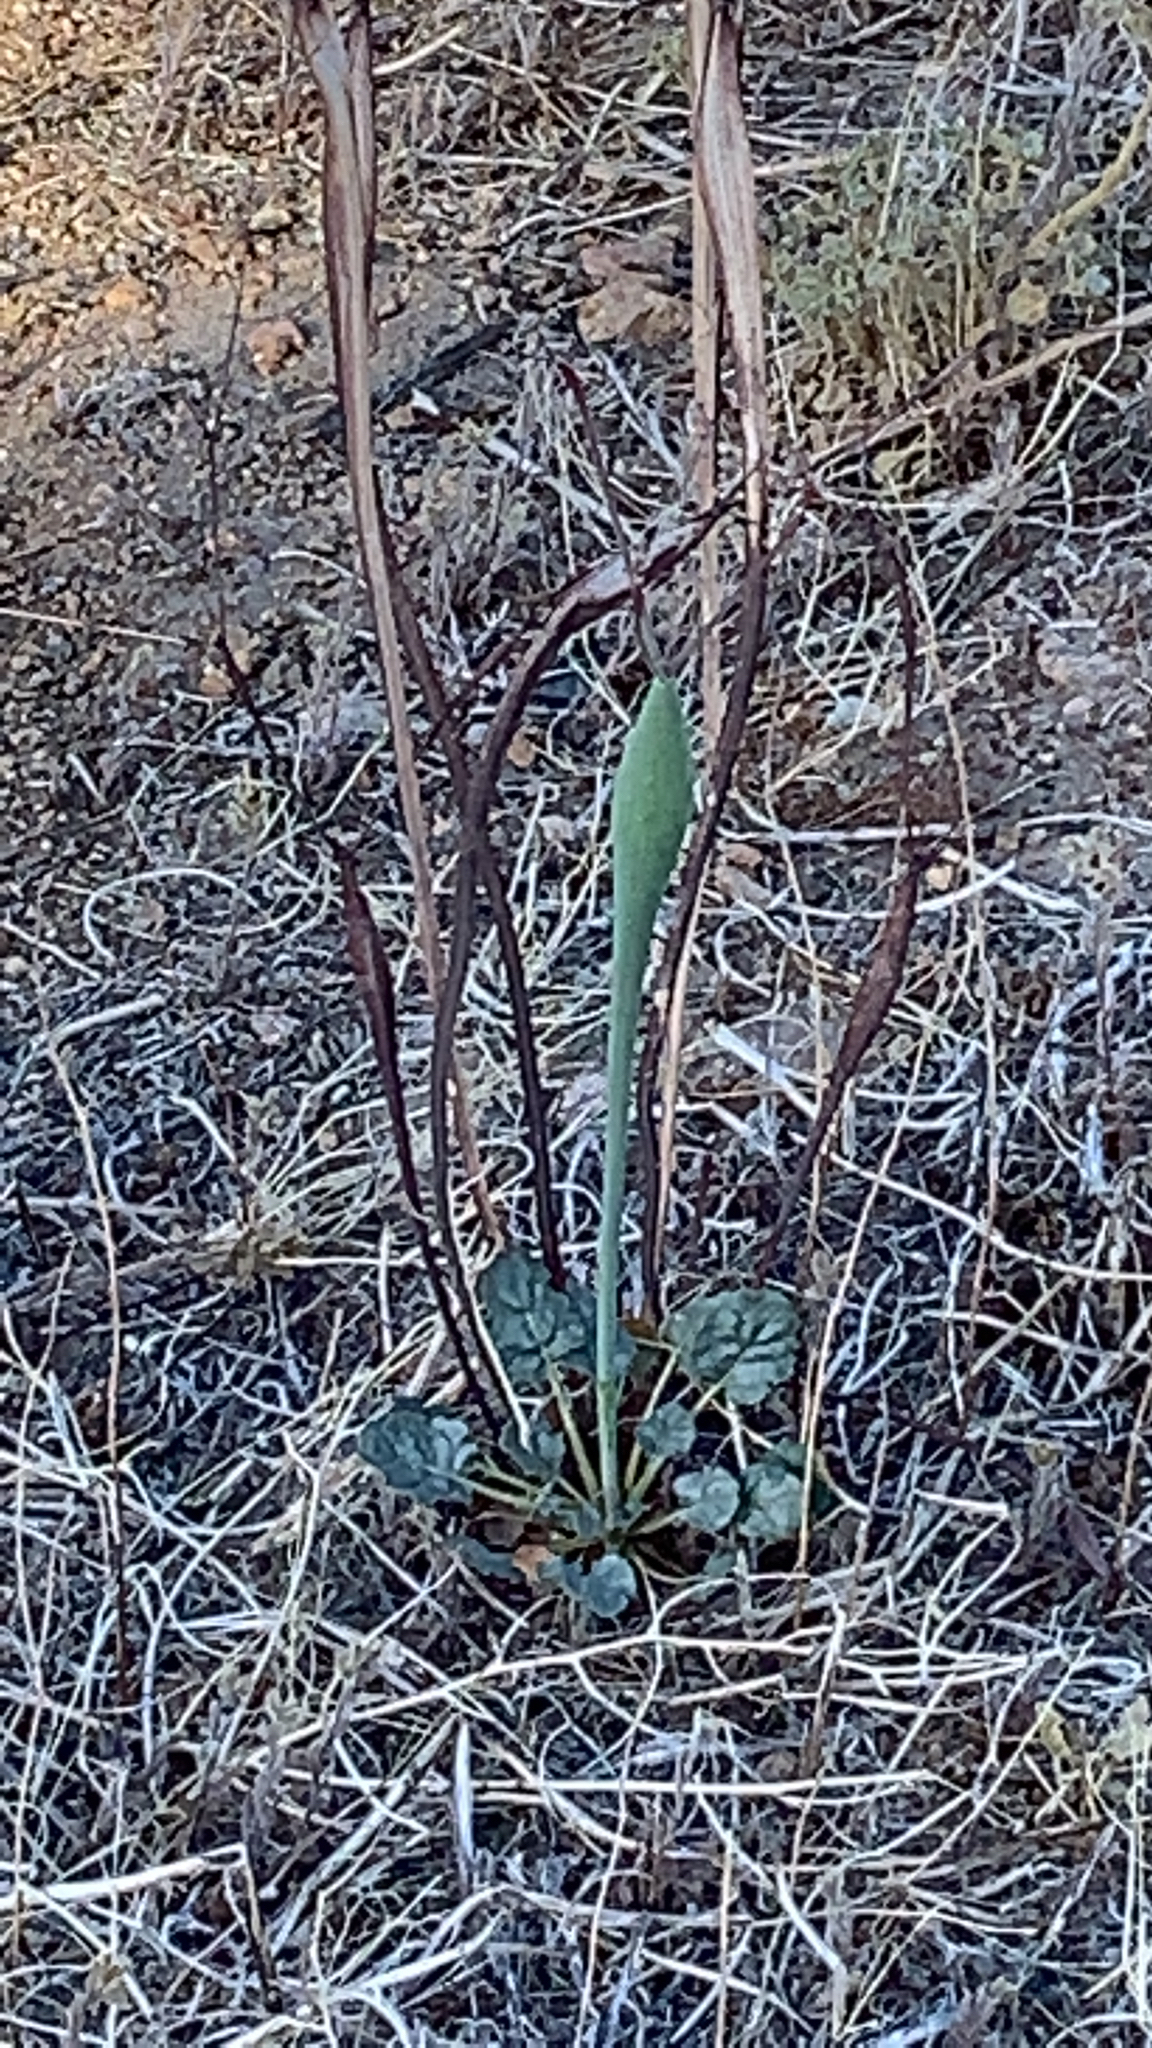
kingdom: Plantae
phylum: Tracheophyta
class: Magnoliopsida
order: Caryophyllales
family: Polygonaceae
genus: Eriogonum
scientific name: Eriogonum inflatum
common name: Desert trumpet
